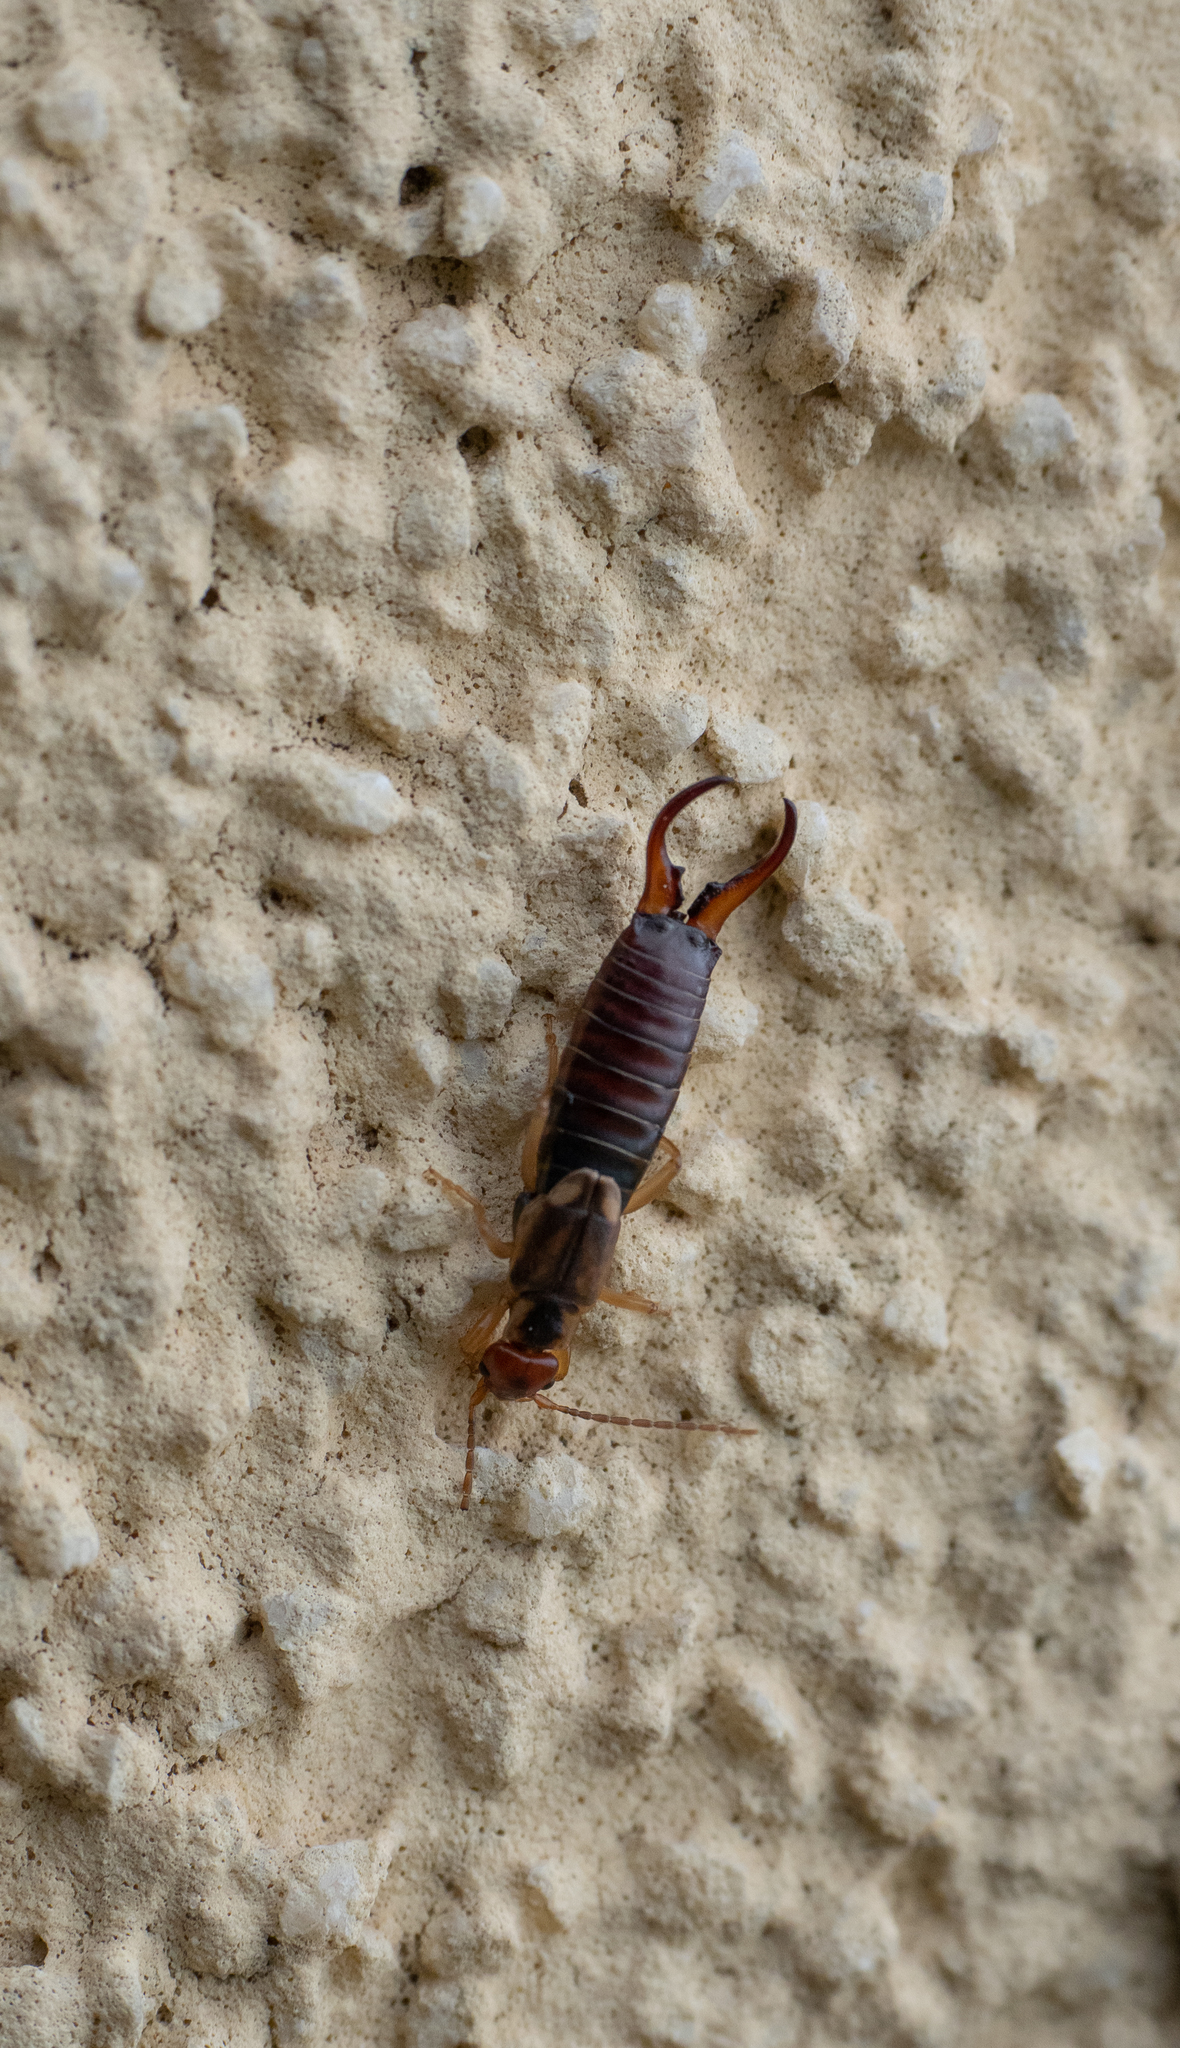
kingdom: Animalia
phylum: Arthropoda
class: Insecta
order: Dermaptera
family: Forficulidae
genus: Forficula
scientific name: Forficula
